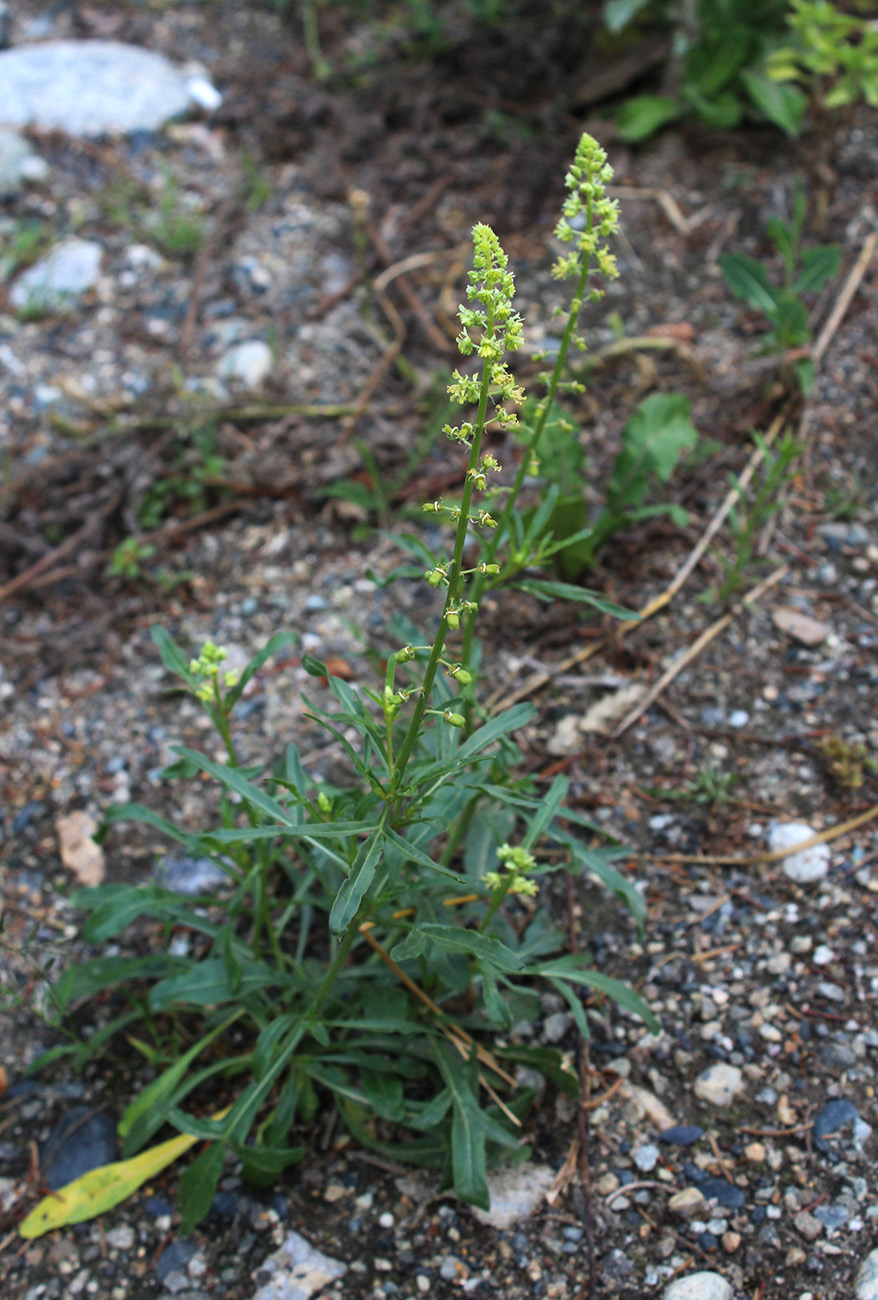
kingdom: Plantae
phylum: Tracheophyta
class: Magnoliopsida
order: Brassicales
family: Resedaceae
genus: Reseda
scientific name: Reseda lutea
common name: Wild mignonette
